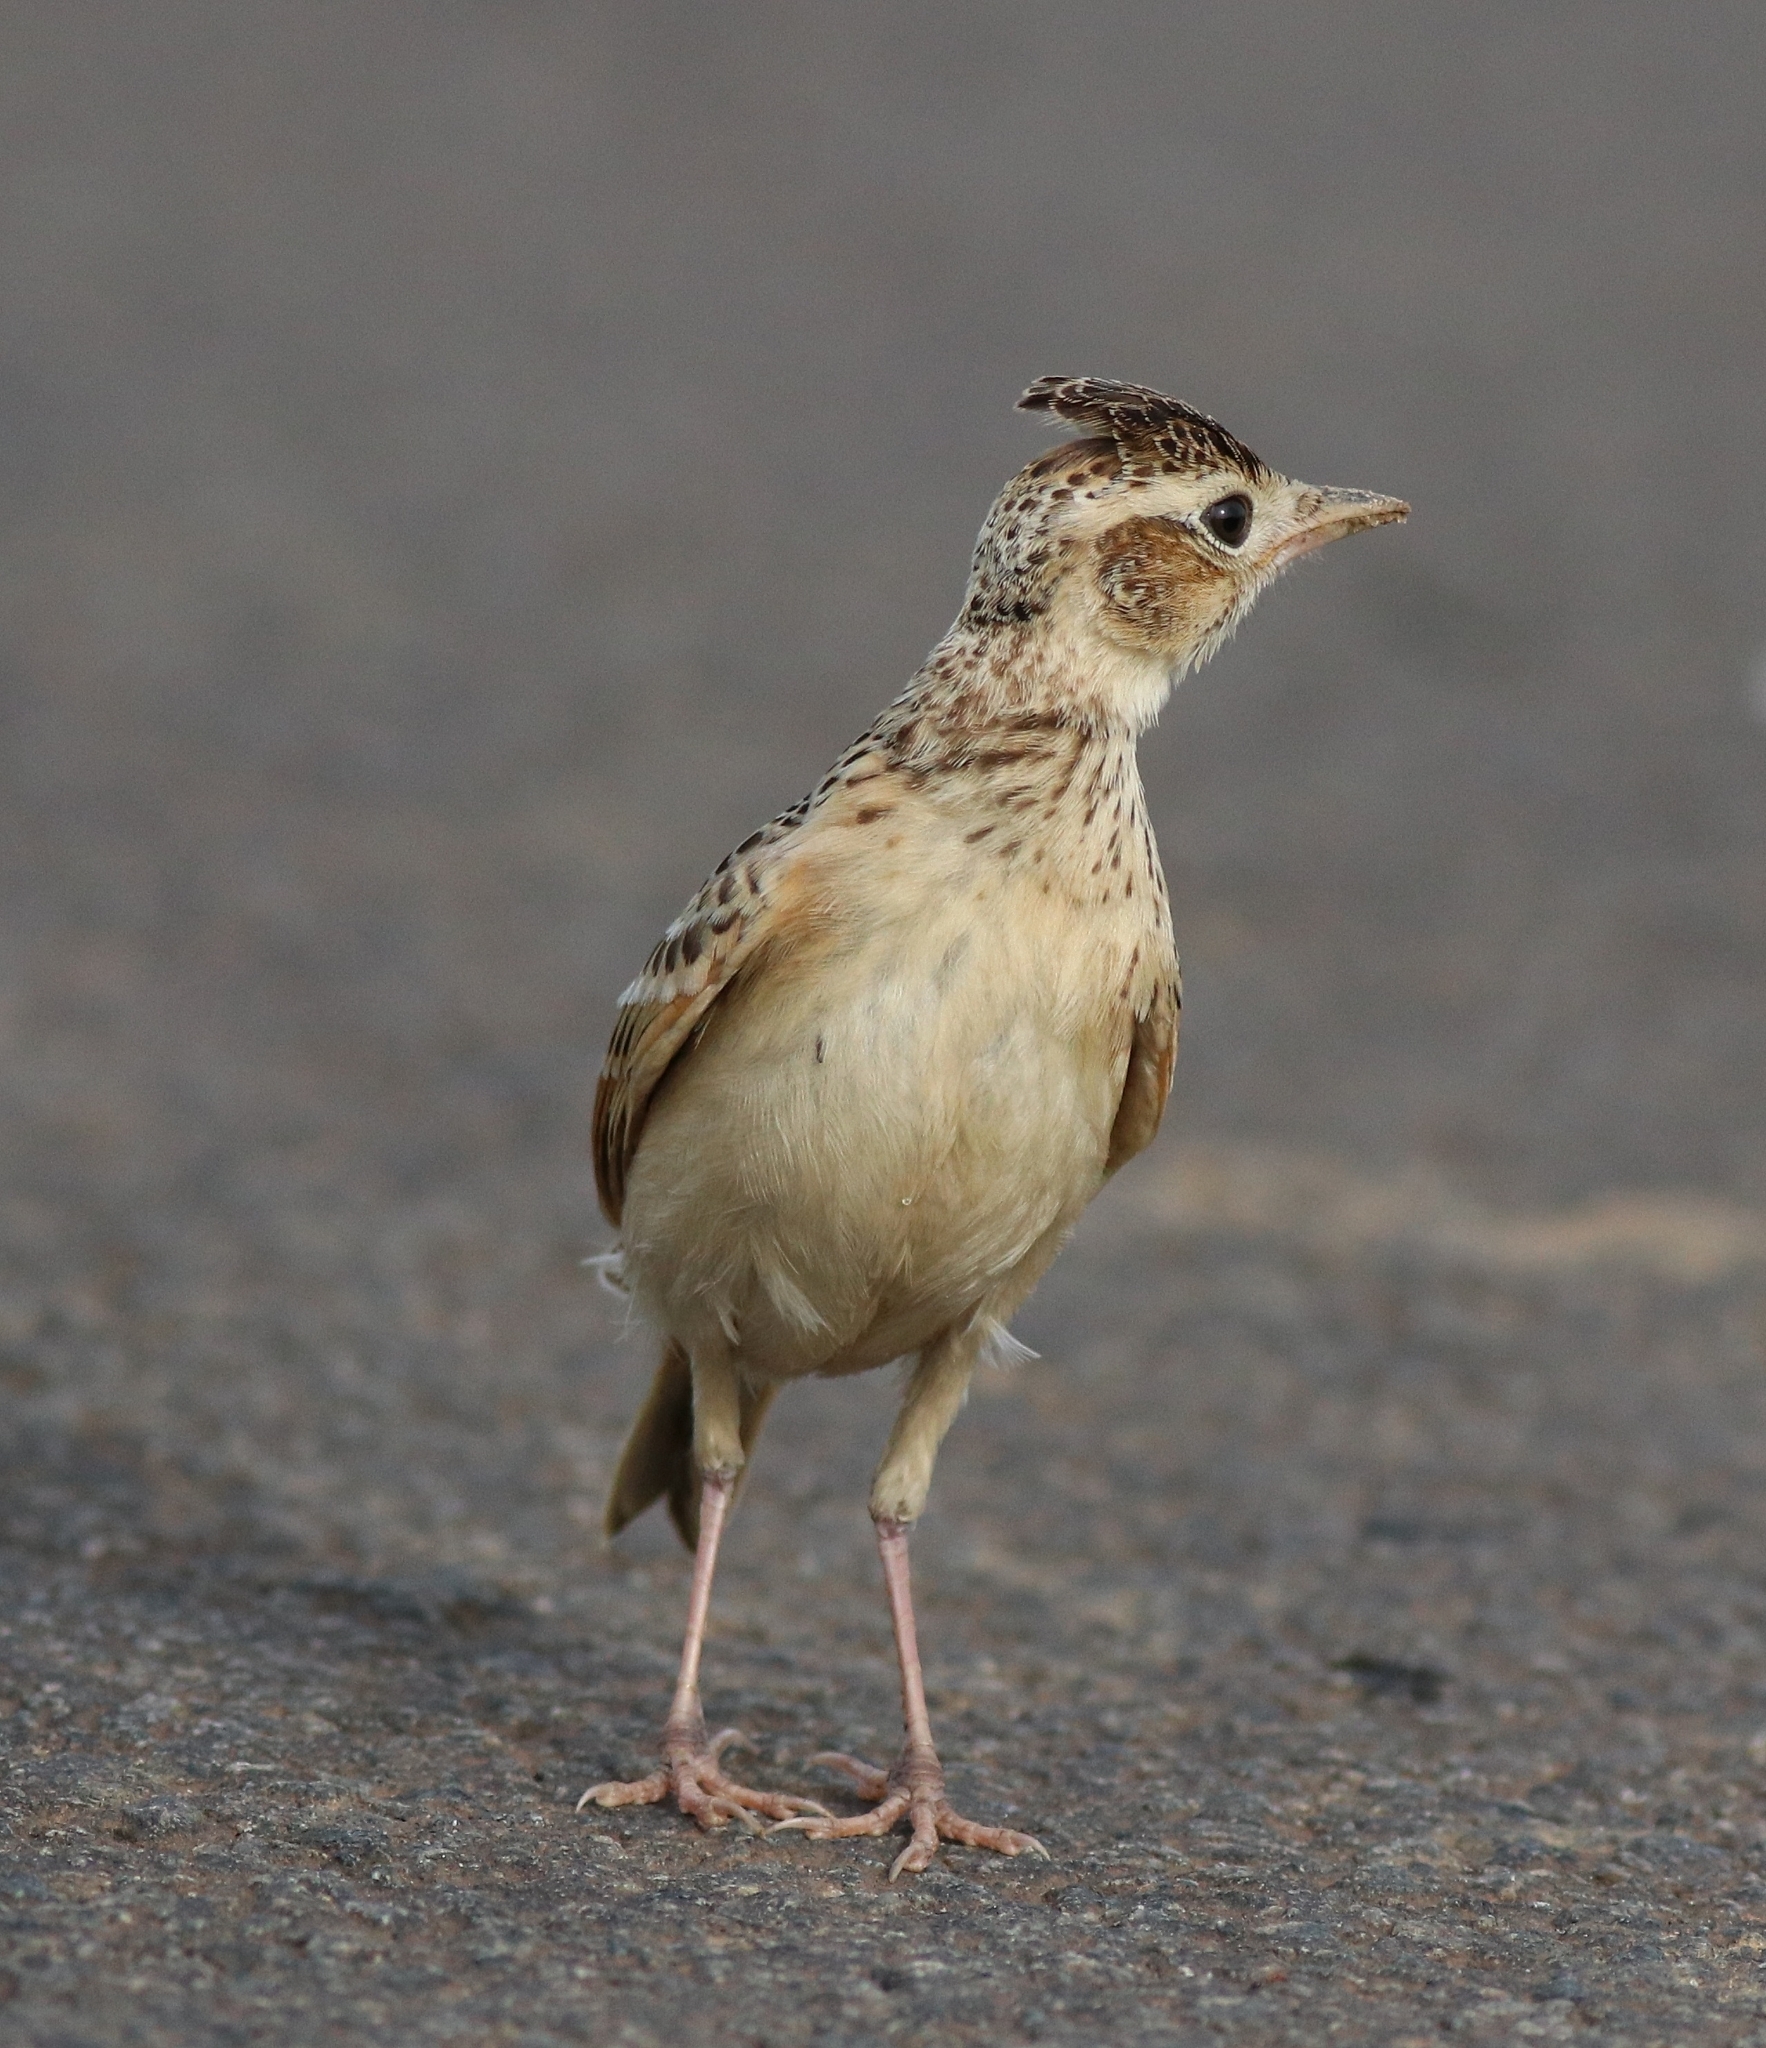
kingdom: Animalia
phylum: Chordata
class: Aves
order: Passeriformes
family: Alaudidae
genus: Alauda
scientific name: Alauda gulgula
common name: Oriental skylark
